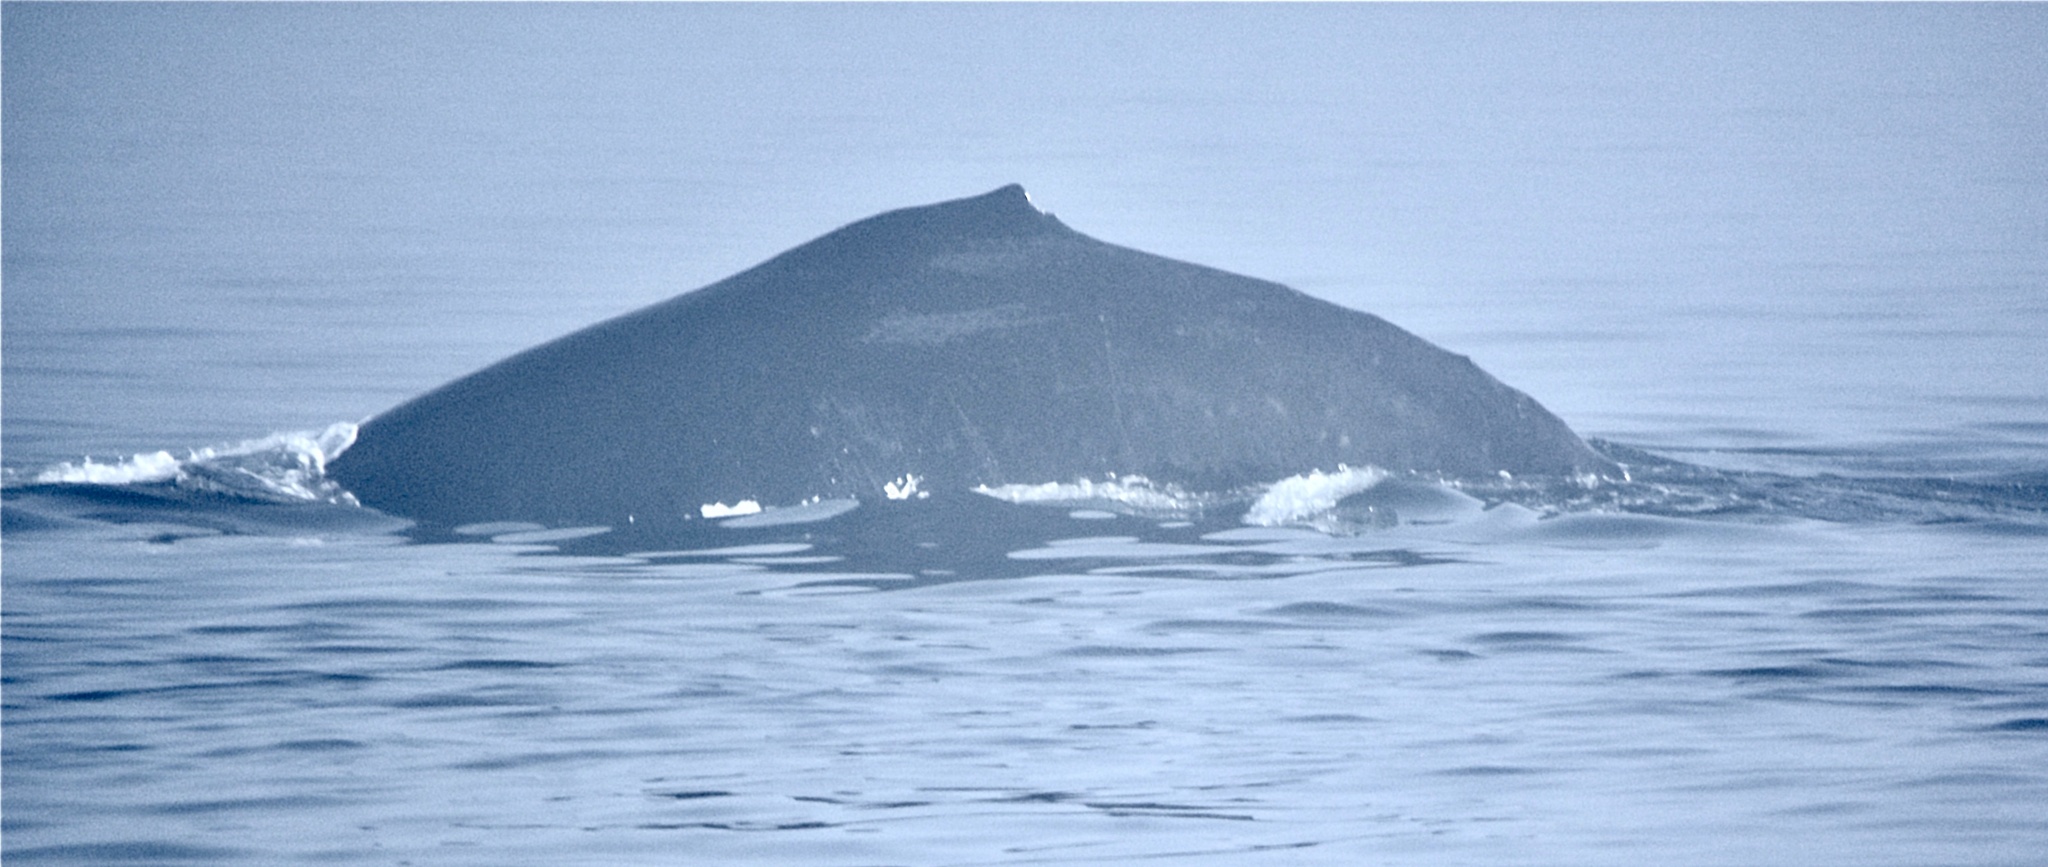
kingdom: Animalia
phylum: Chordata
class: Mammalia
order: Cetacea
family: Balaenopteridae
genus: Megaptera
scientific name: Megaptera novaeangliae
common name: Humpback whale
